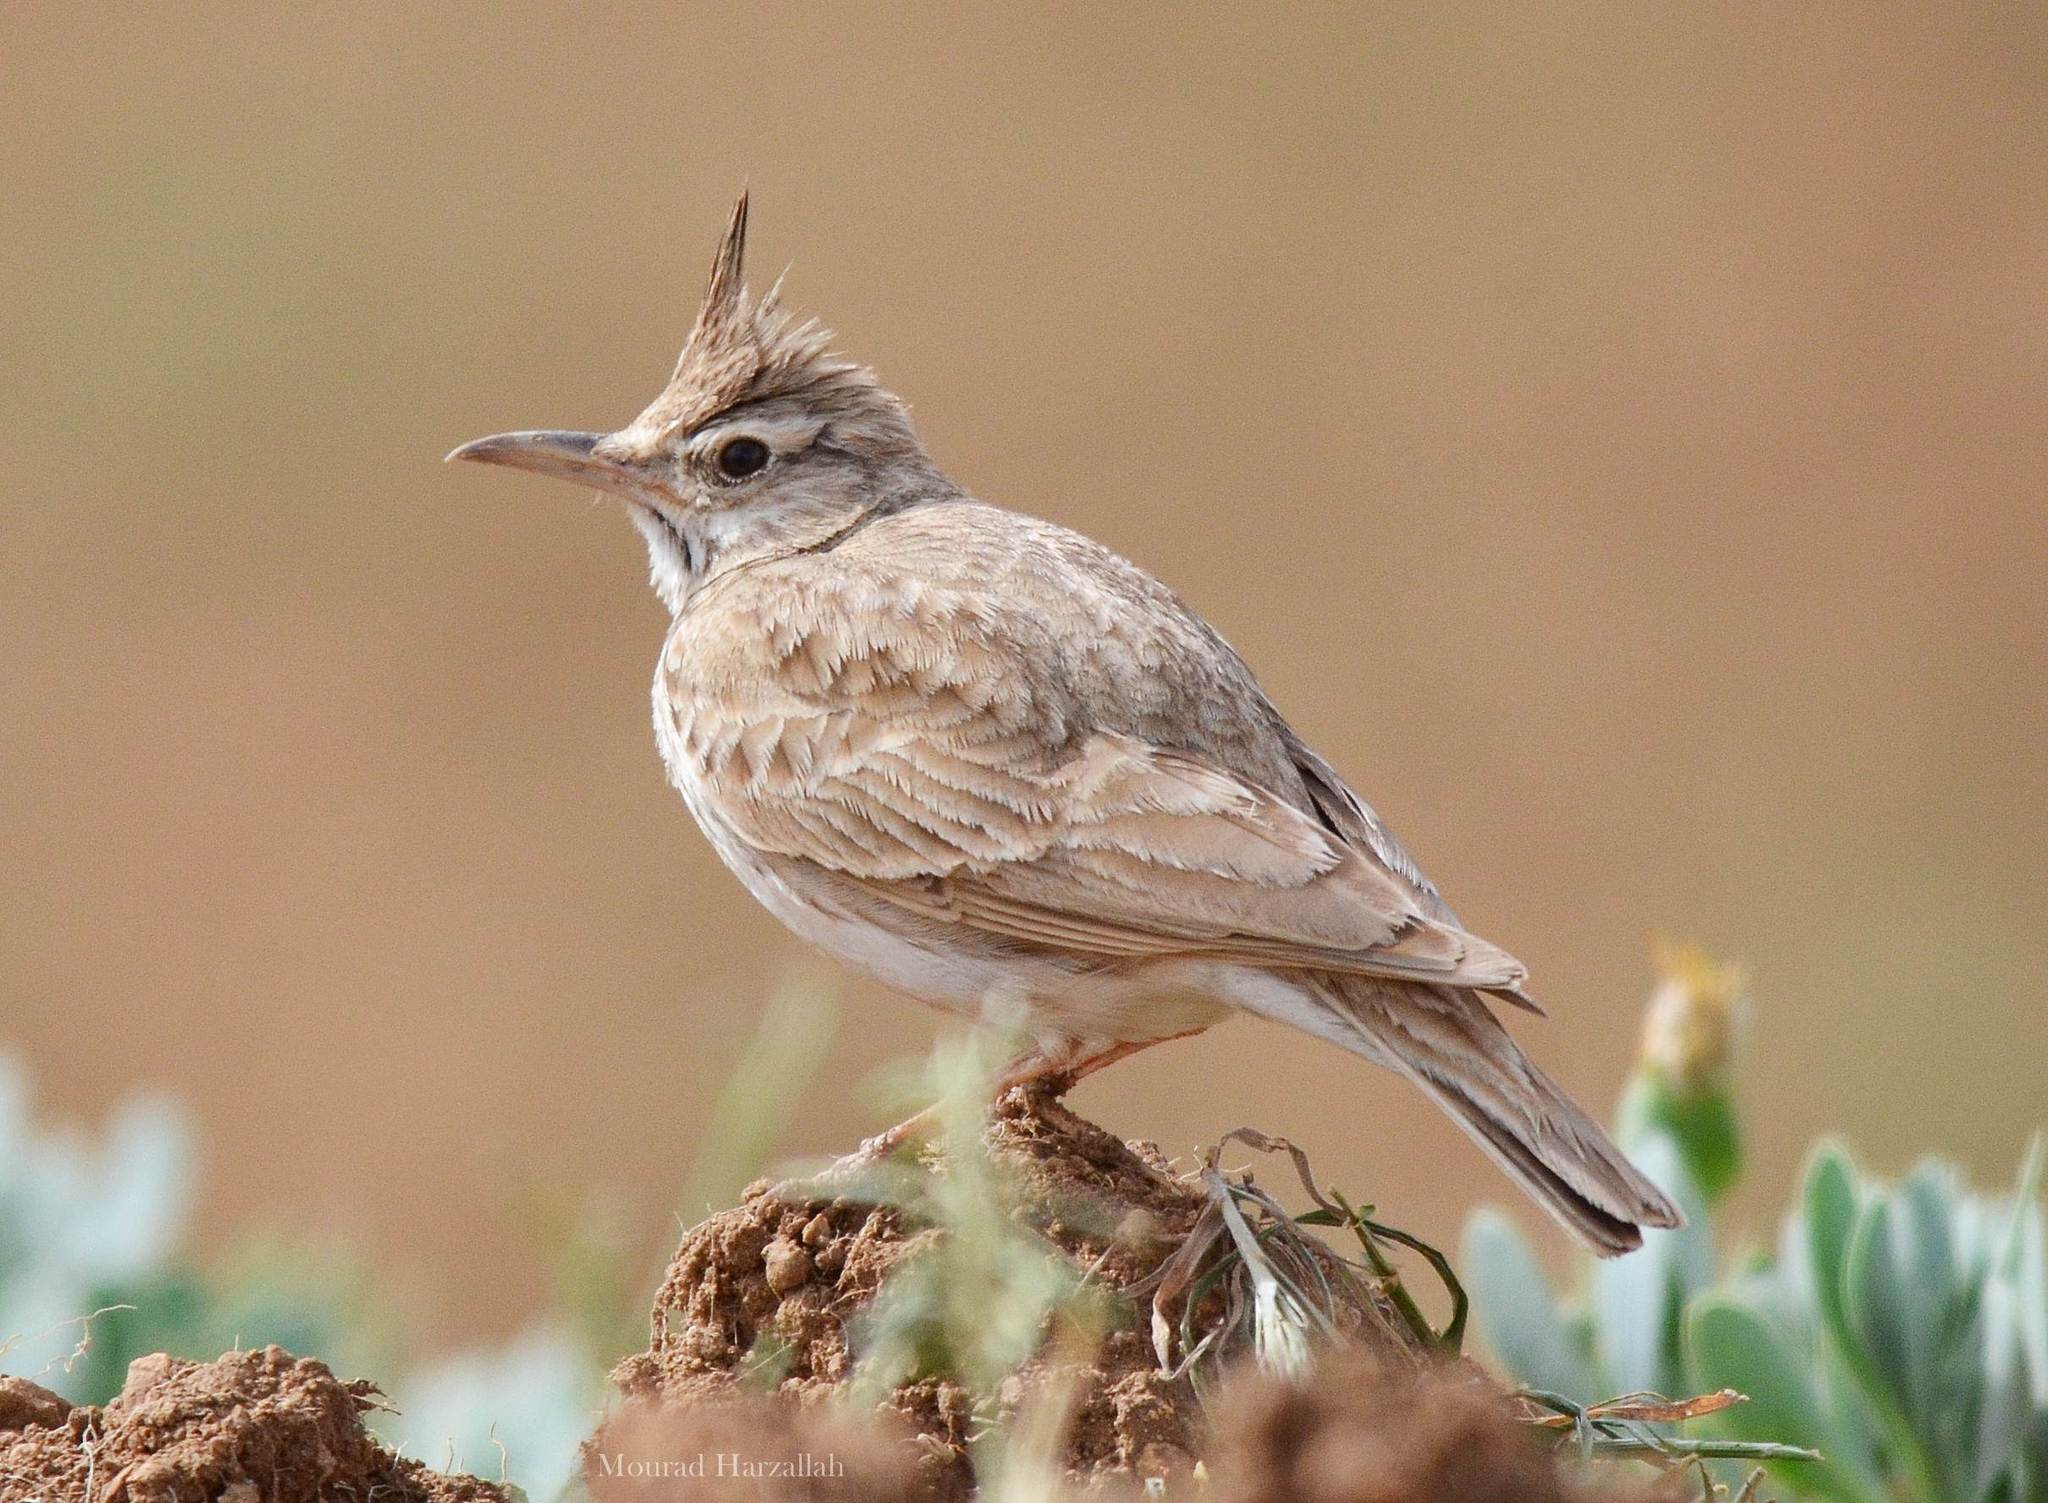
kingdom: Animalia
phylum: Chordata
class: Aves
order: Passeriformes
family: Alaudidae
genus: Galerida
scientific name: Galerida cristata
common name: Crested lark
